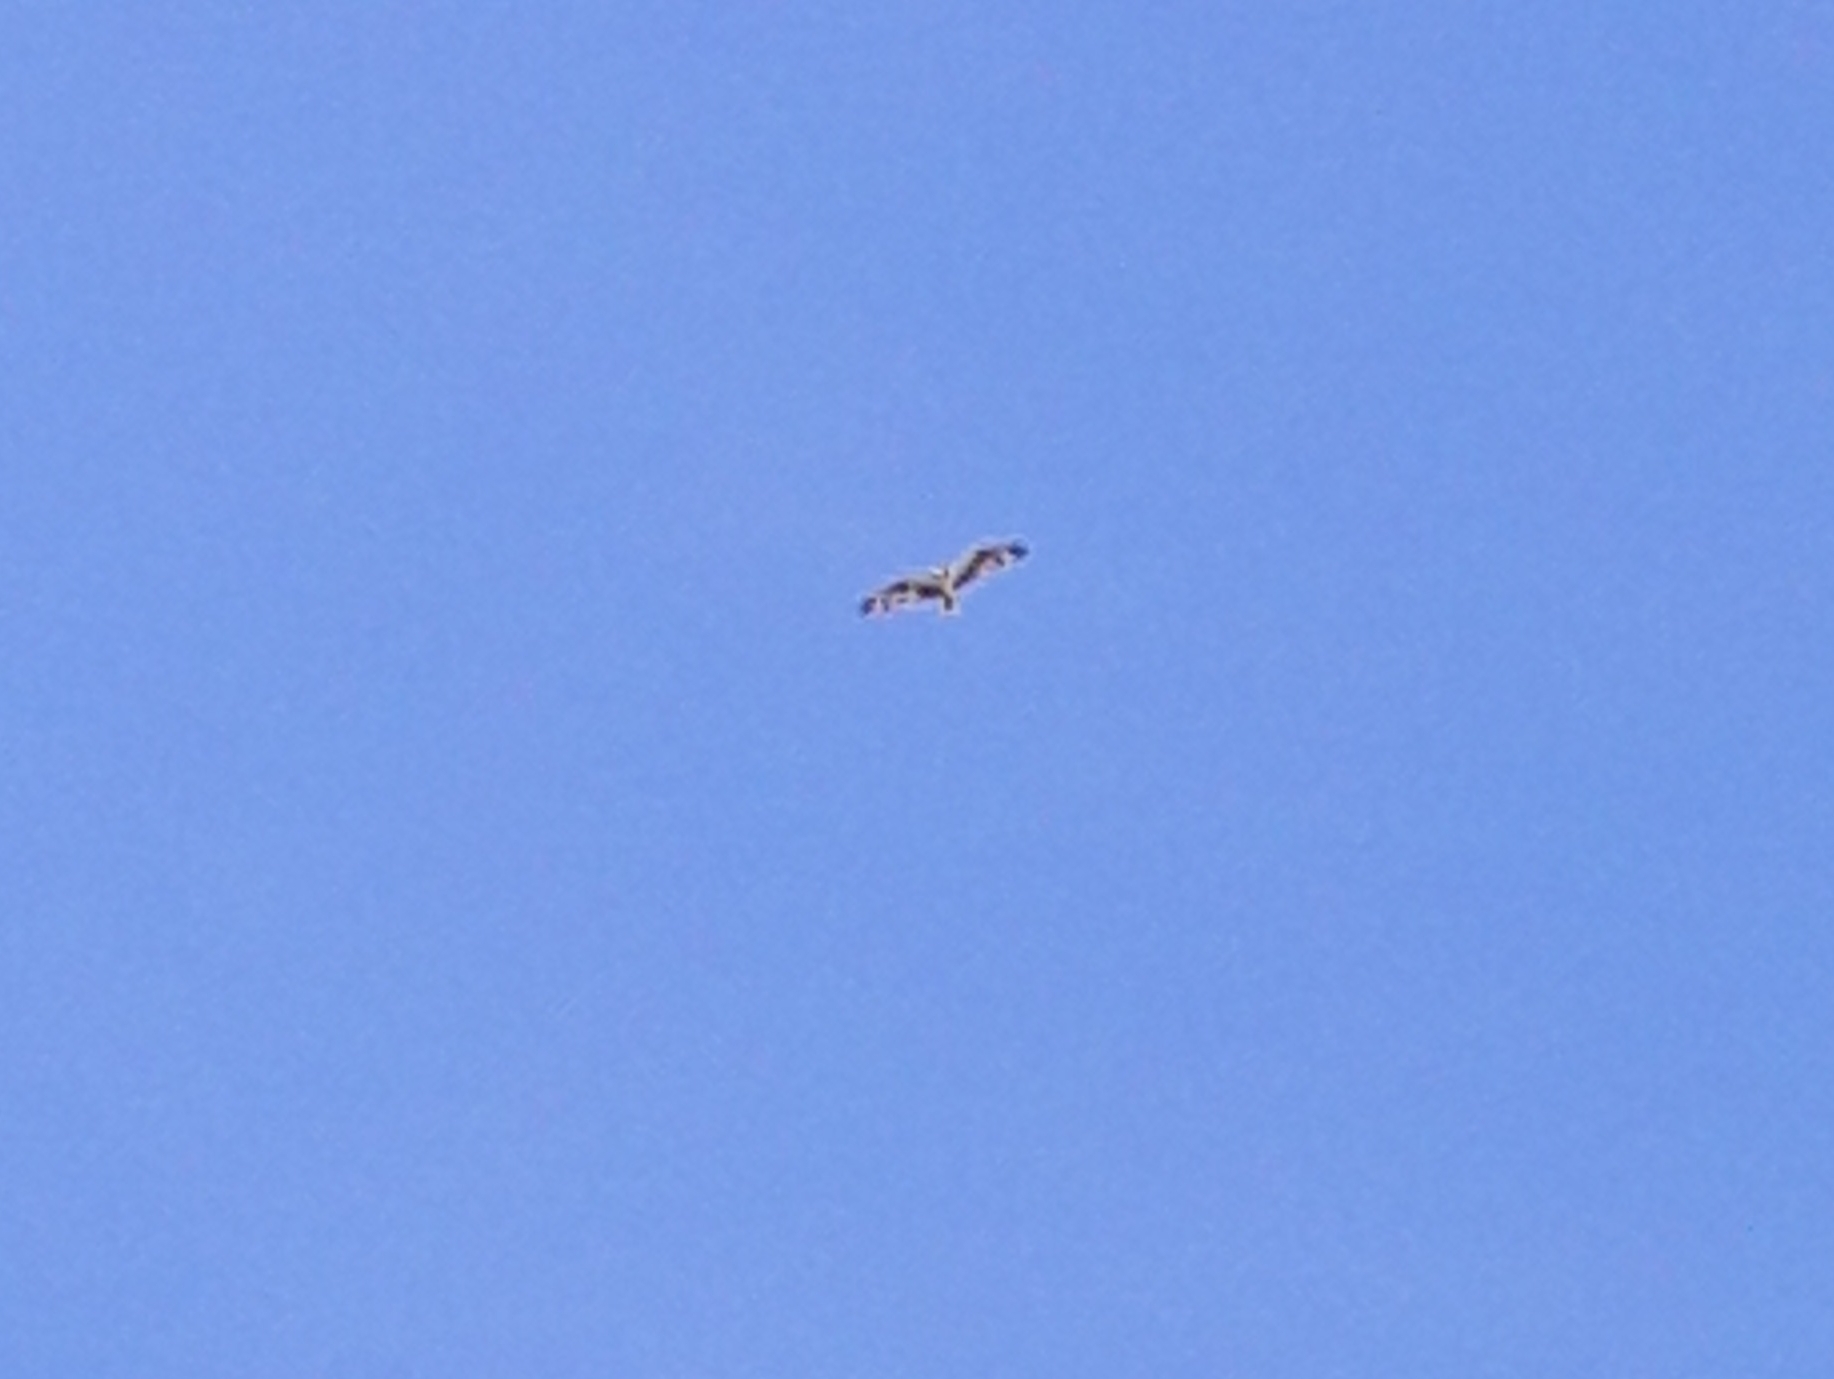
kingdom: Animalia
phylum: Chordata
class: Aves
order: Accipitriformes
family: Pandionidae
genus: Pandion
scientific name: Pandion haliaetus
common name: Osprey
